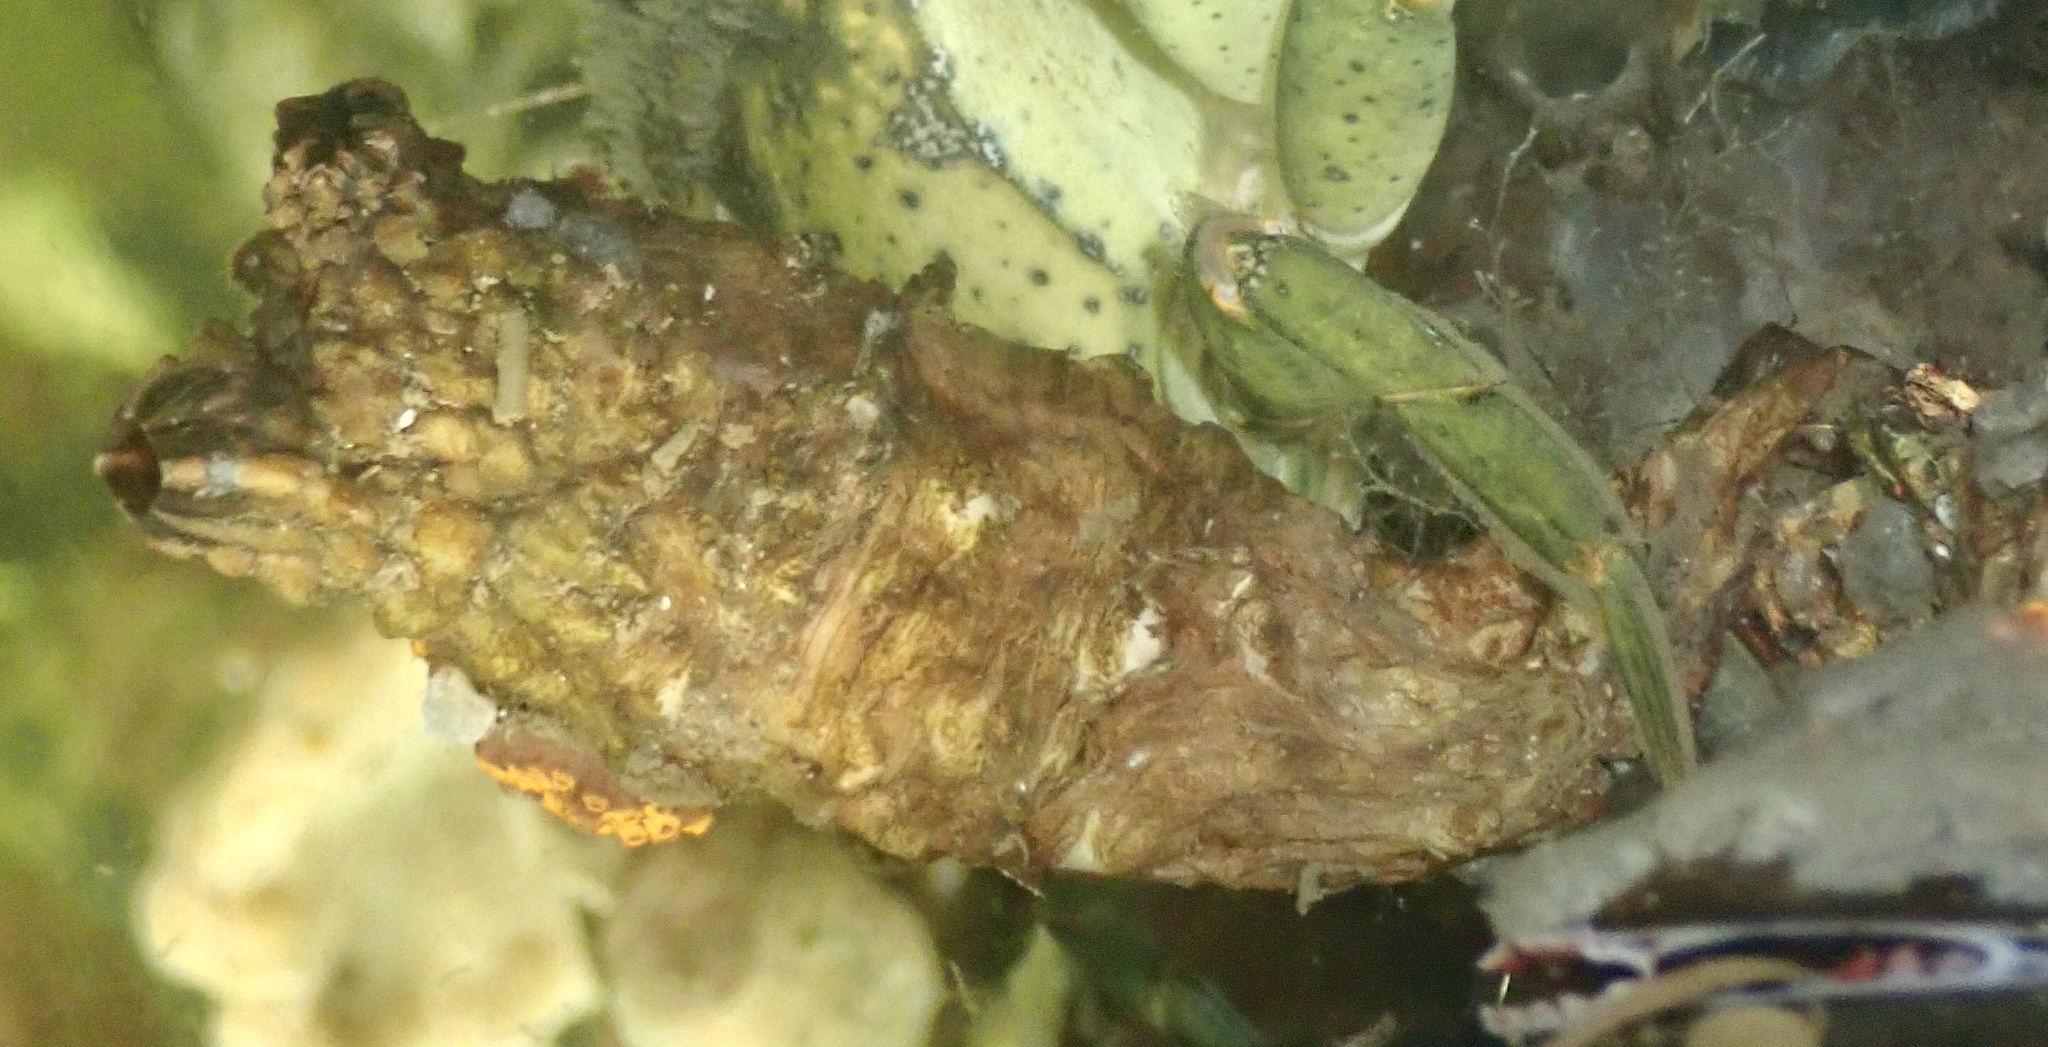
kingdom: Animalia
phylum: Chordata
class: Ascidiacea
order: Stolidobranchia
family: Styelidae
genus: Styela
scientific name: Styela clava
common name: Leathery sea squirt
